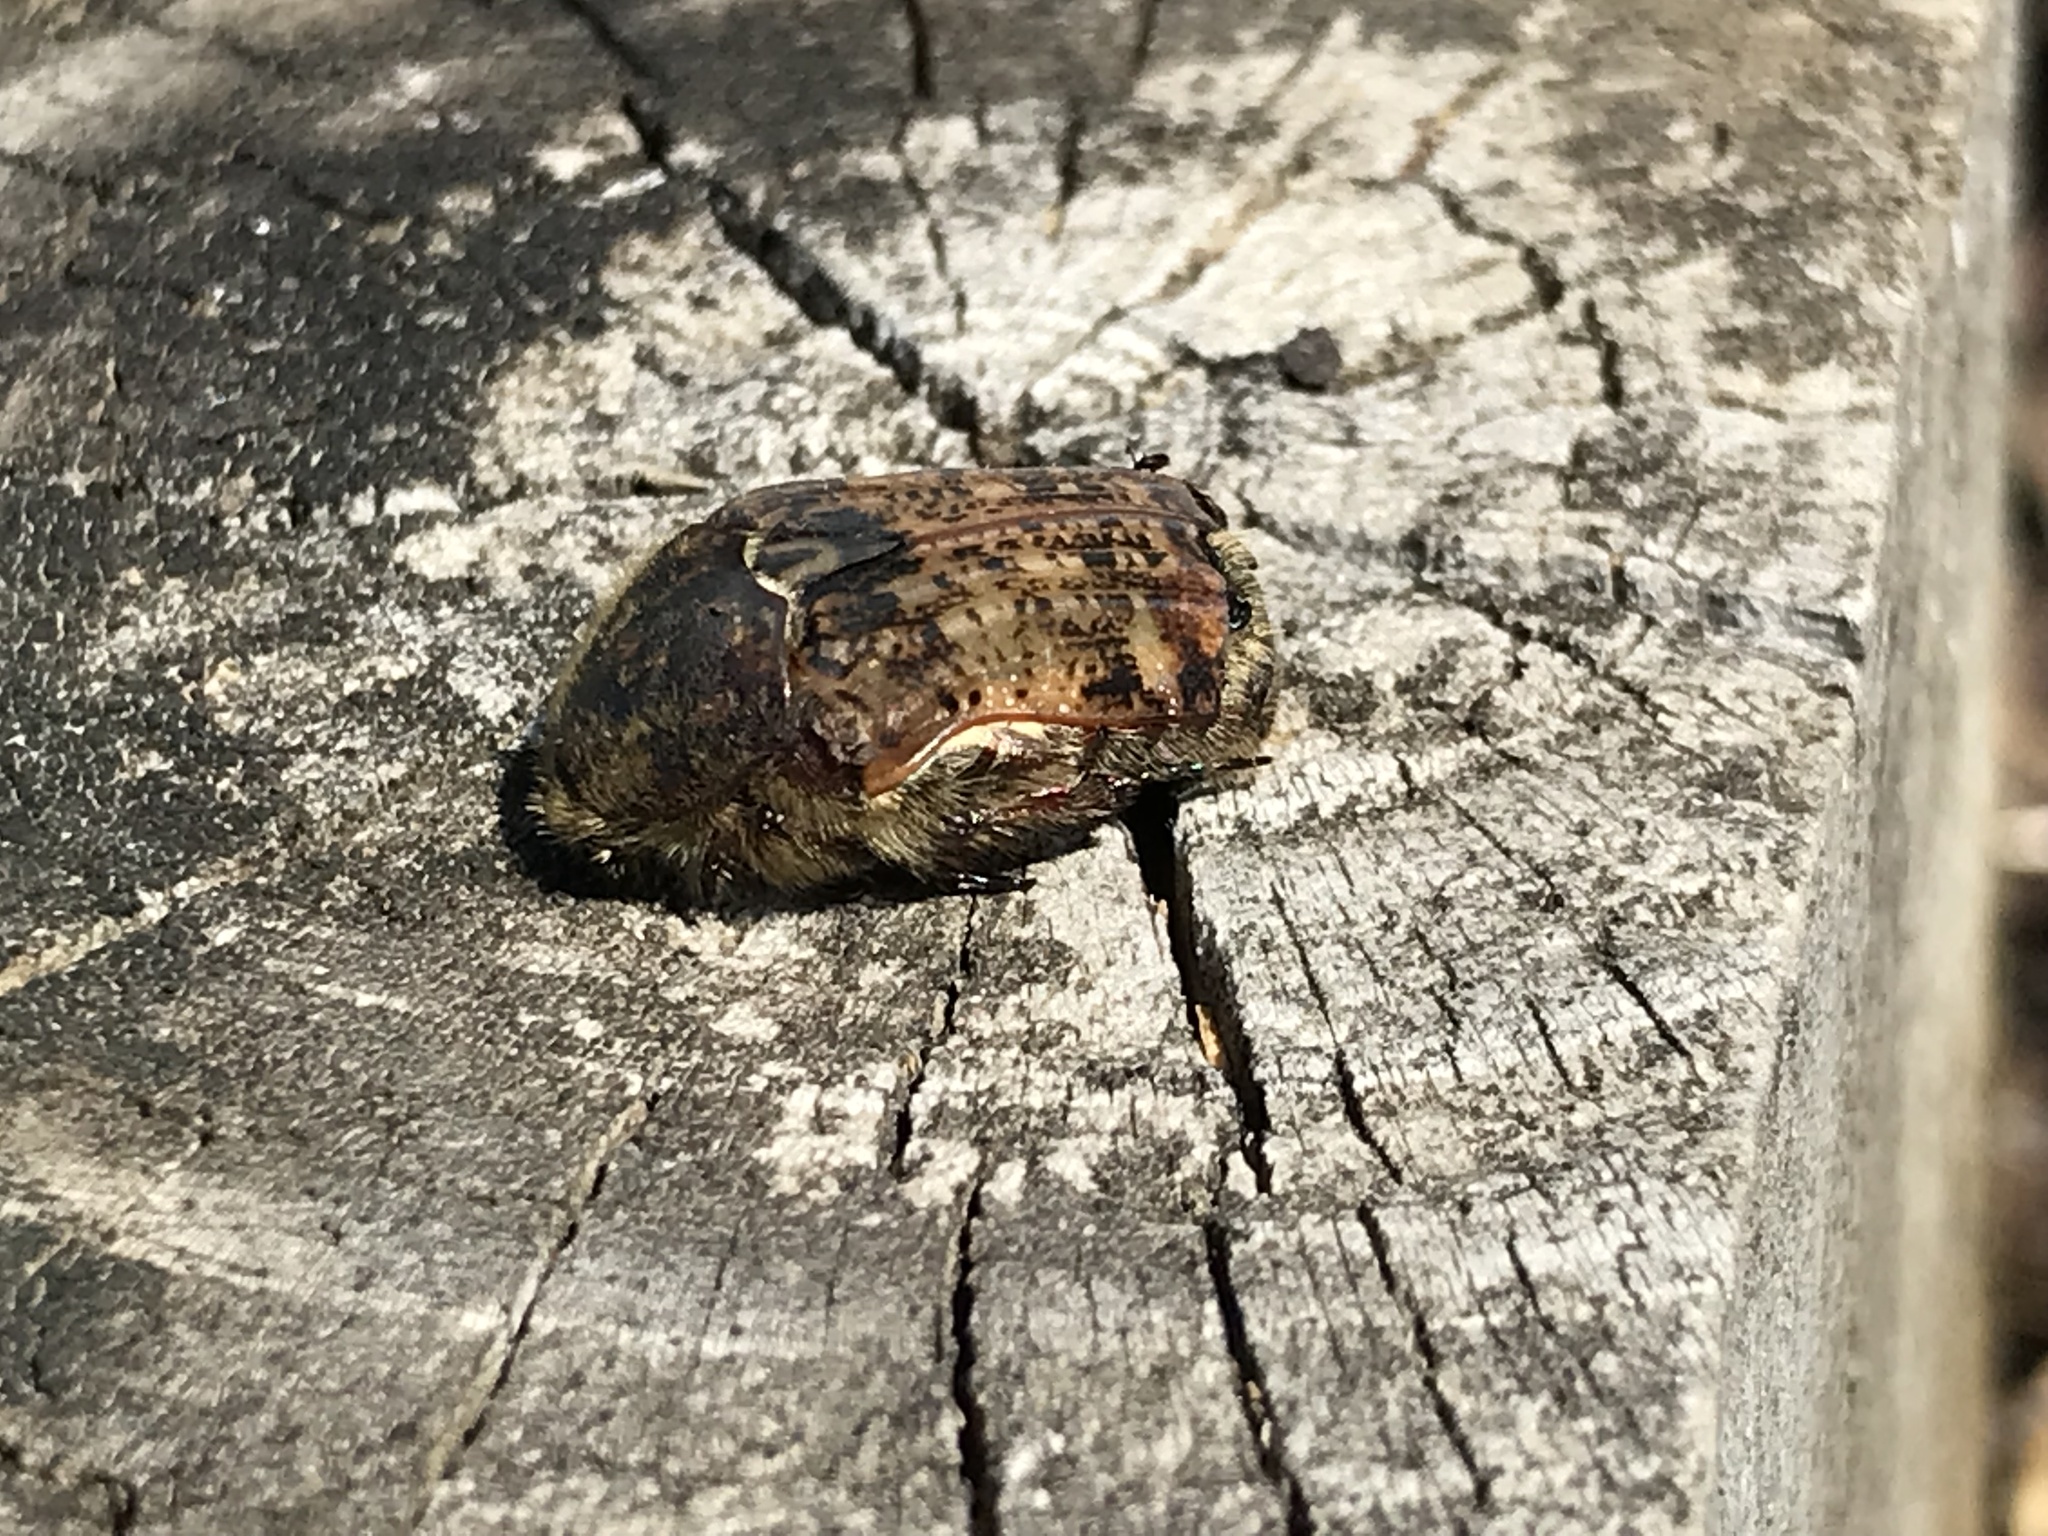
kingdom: Animalia
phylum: Arthropoda
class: Insecta
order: Coleoptera
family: Scarabaeidae
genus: Euphoria
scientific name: Euphoria inda
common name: Bumble flower beetle
